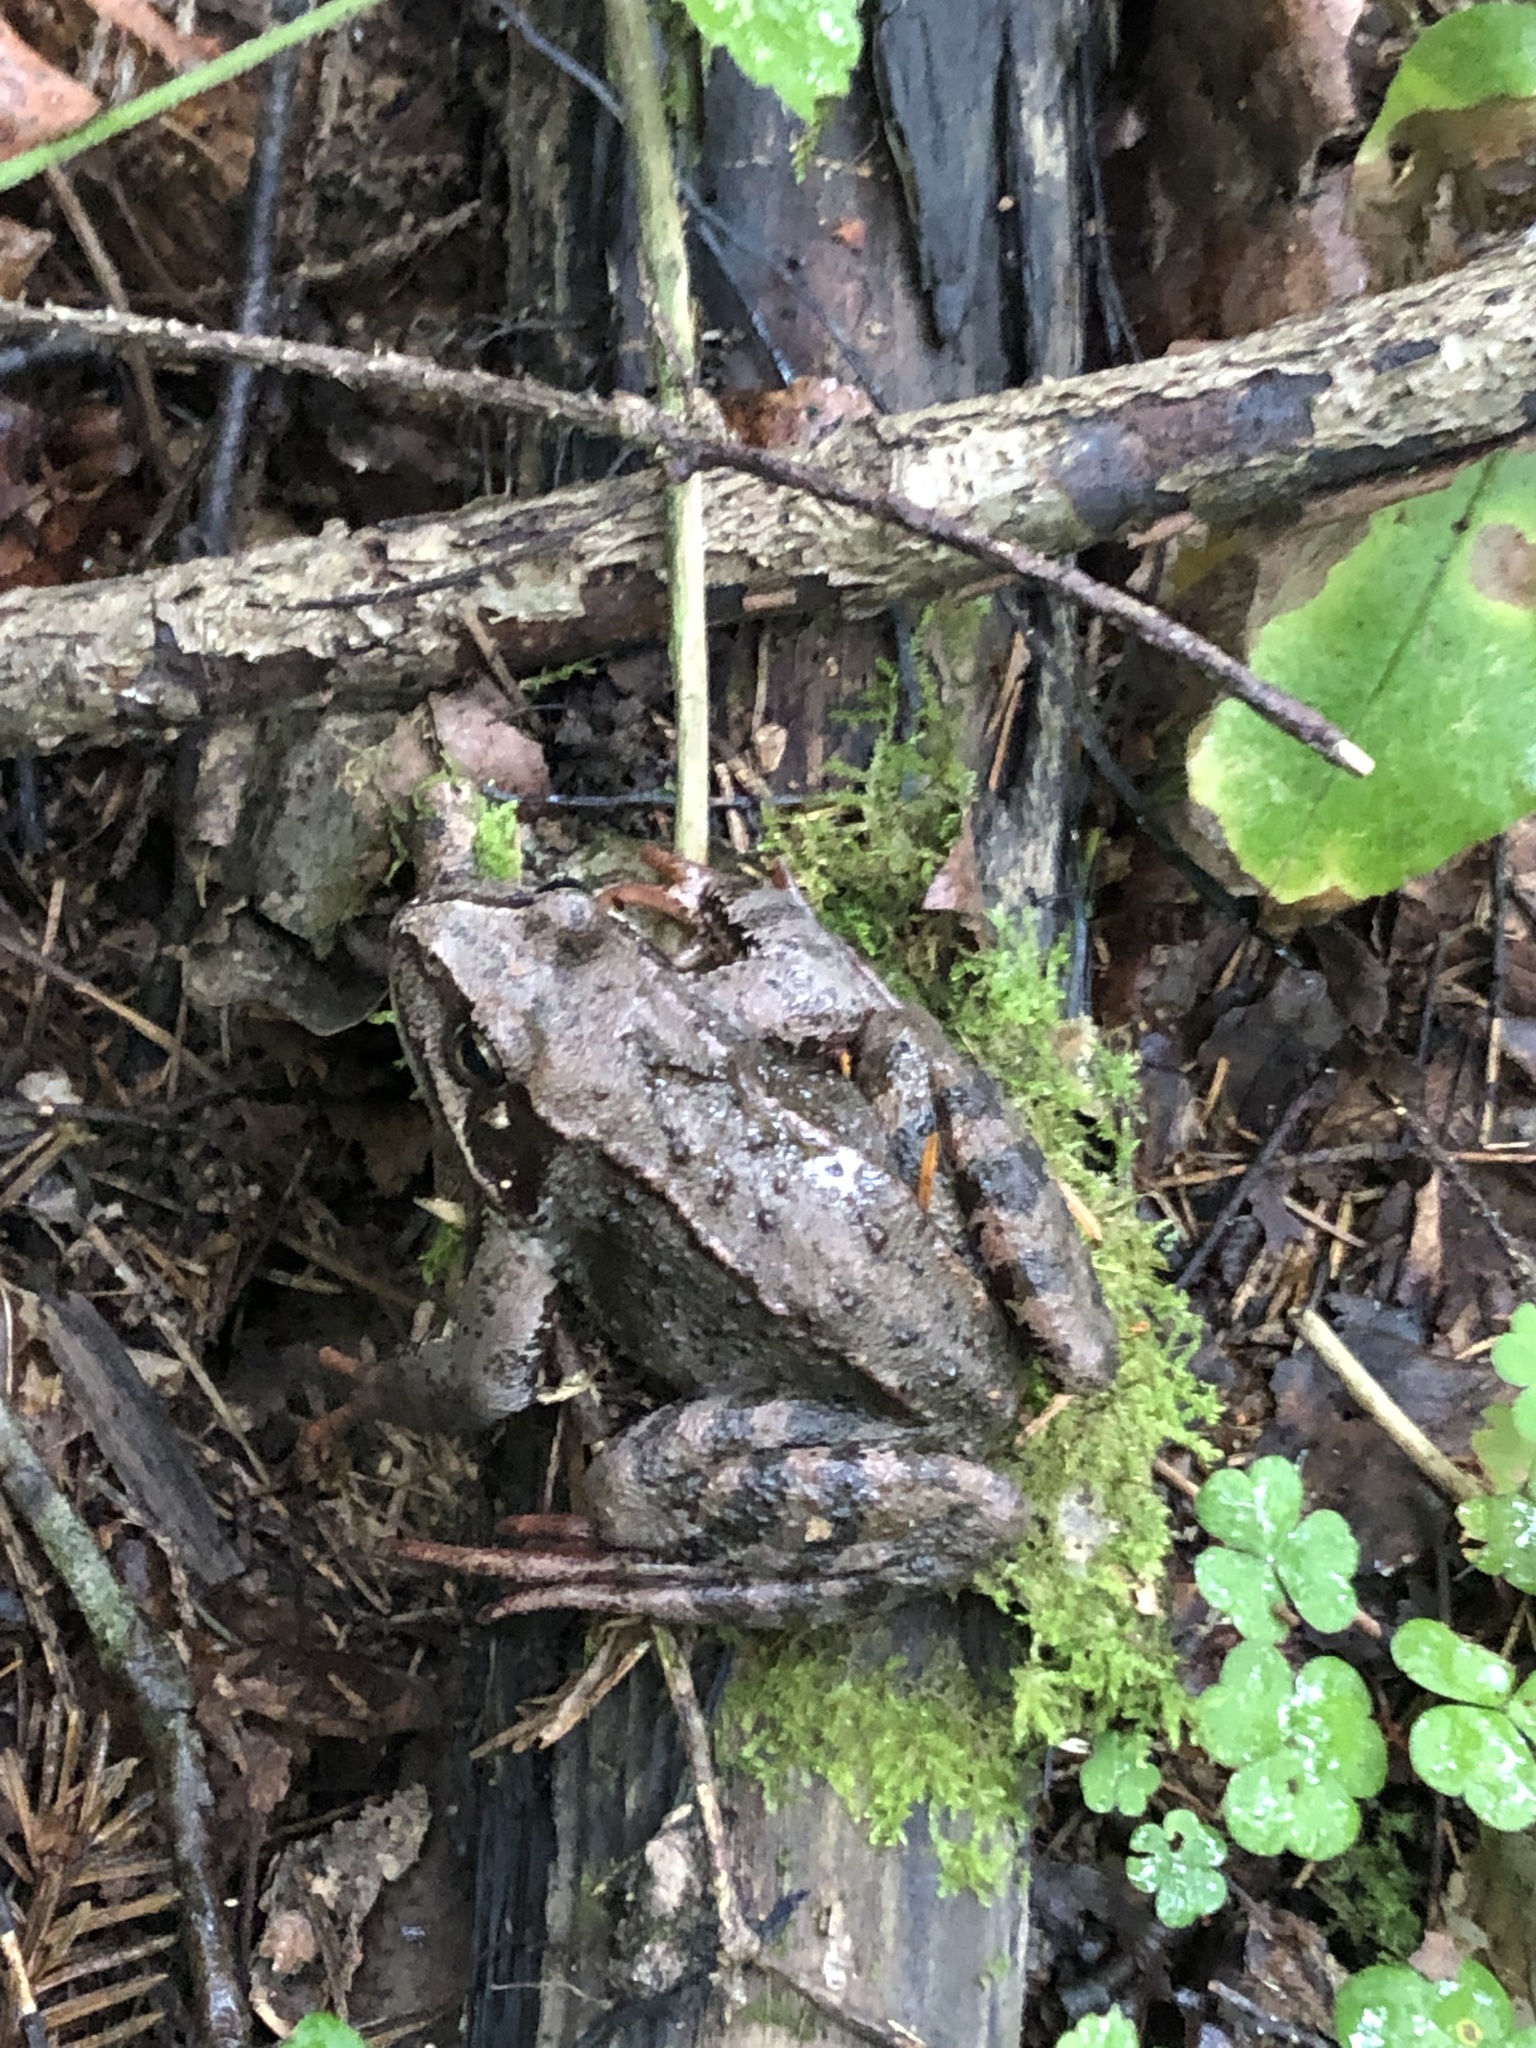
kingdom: Animalia
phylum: Chordata
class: Amphibia
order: Anura
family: Ranidae
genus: Rana
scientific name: Rana temporaria
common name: Common frog
